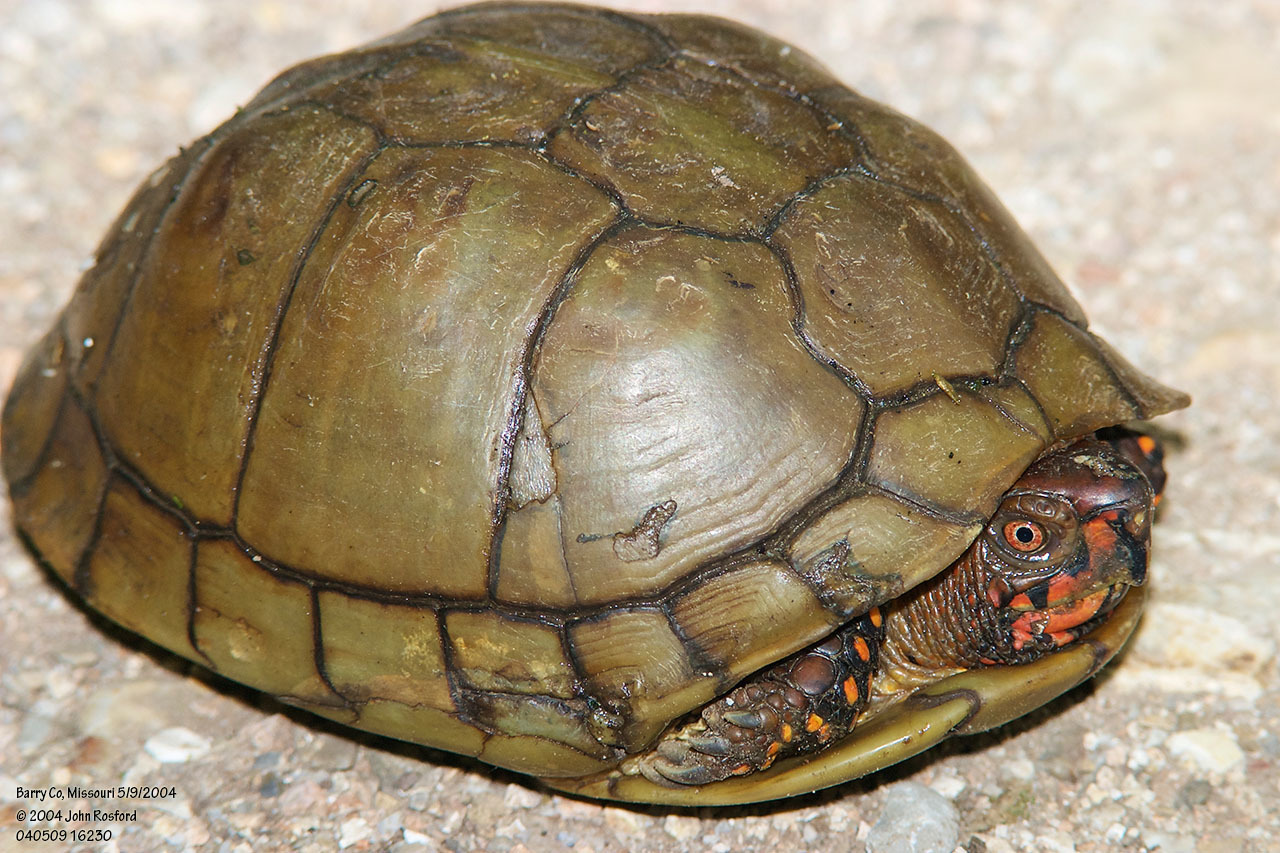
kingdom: Animalia
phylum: Chordata
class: Testudines
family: Emydidae
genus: Terrapene
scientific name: Terrapene carolina
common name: Common box turtle
